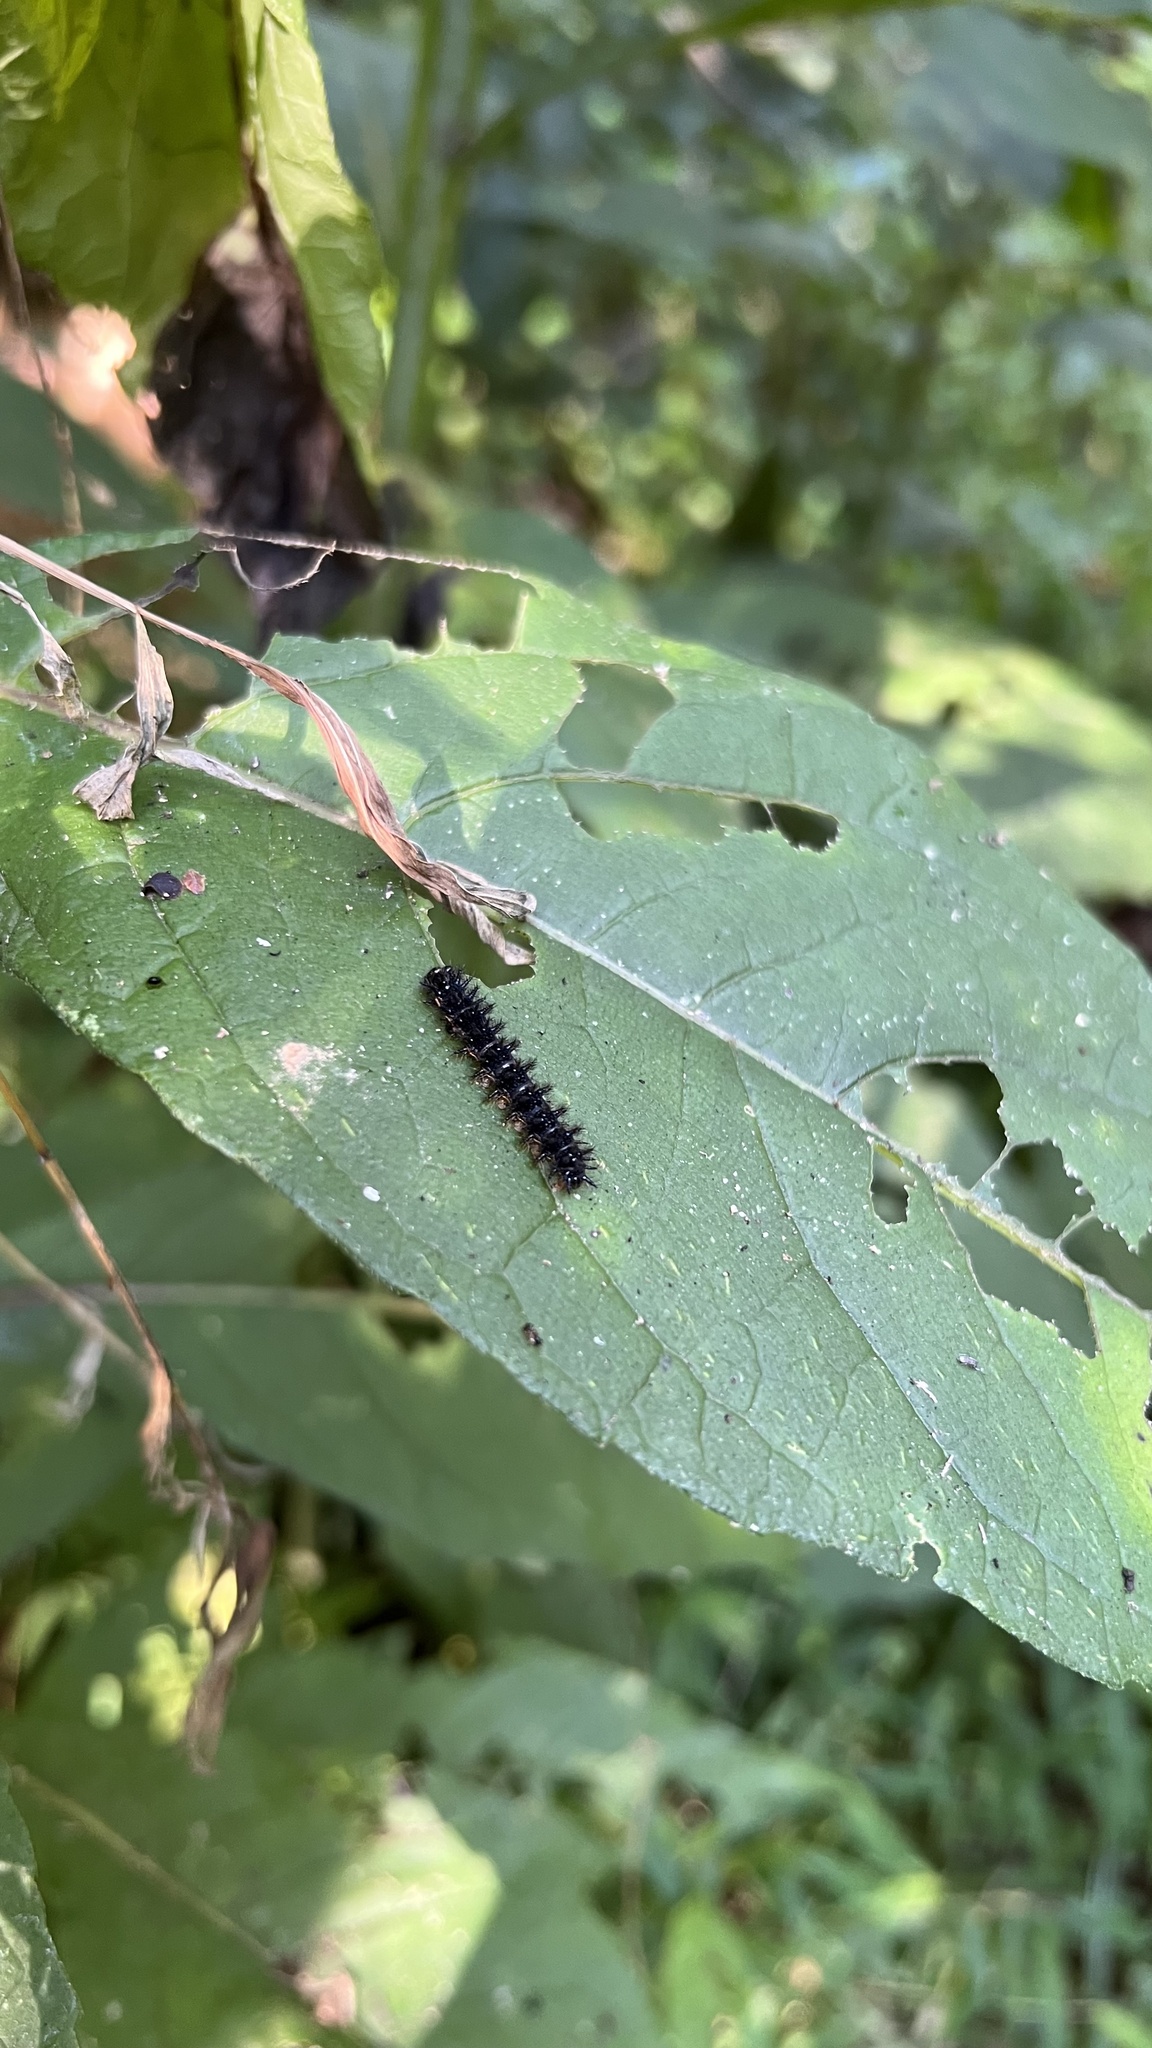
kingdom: Animalia
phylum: Arthropoda
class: Insecta
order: Lepidoptera
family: Nymphalidae
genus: Chlosyne
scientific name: Chlosyne nycteis
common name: Silvery checkerspot
